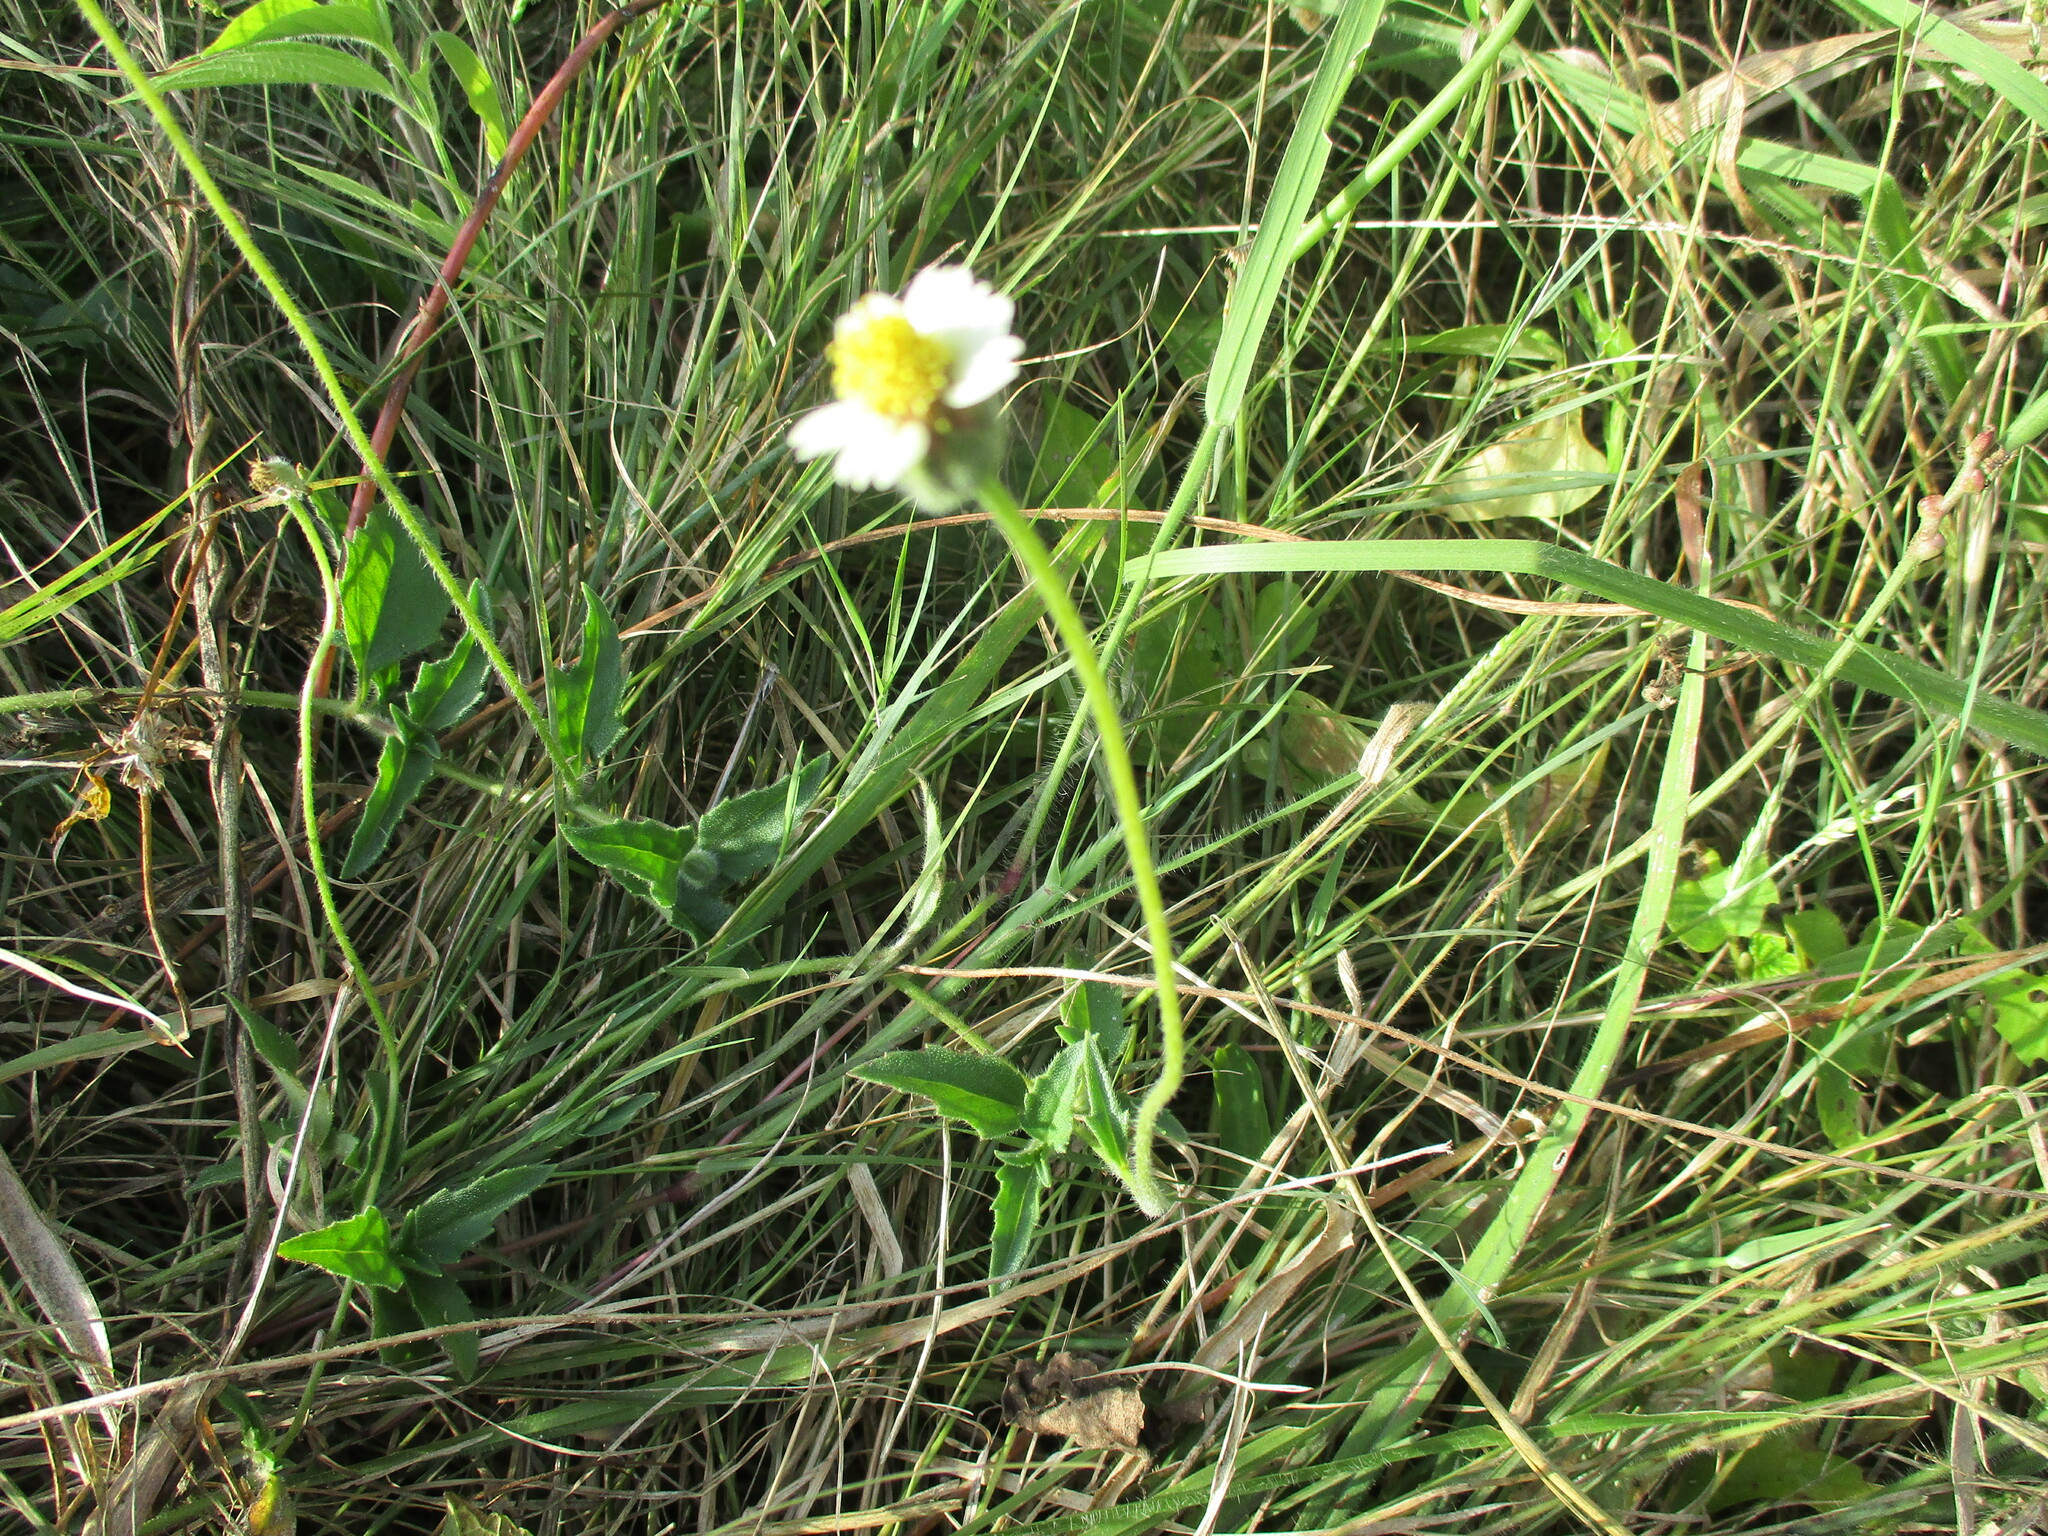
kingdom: Plantae
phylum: Tracheophyta
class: Magnoliopsida
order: Asterales
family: Asteraceae
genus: Tridax
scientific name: Tridax procumbens
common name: Coatbuttons
